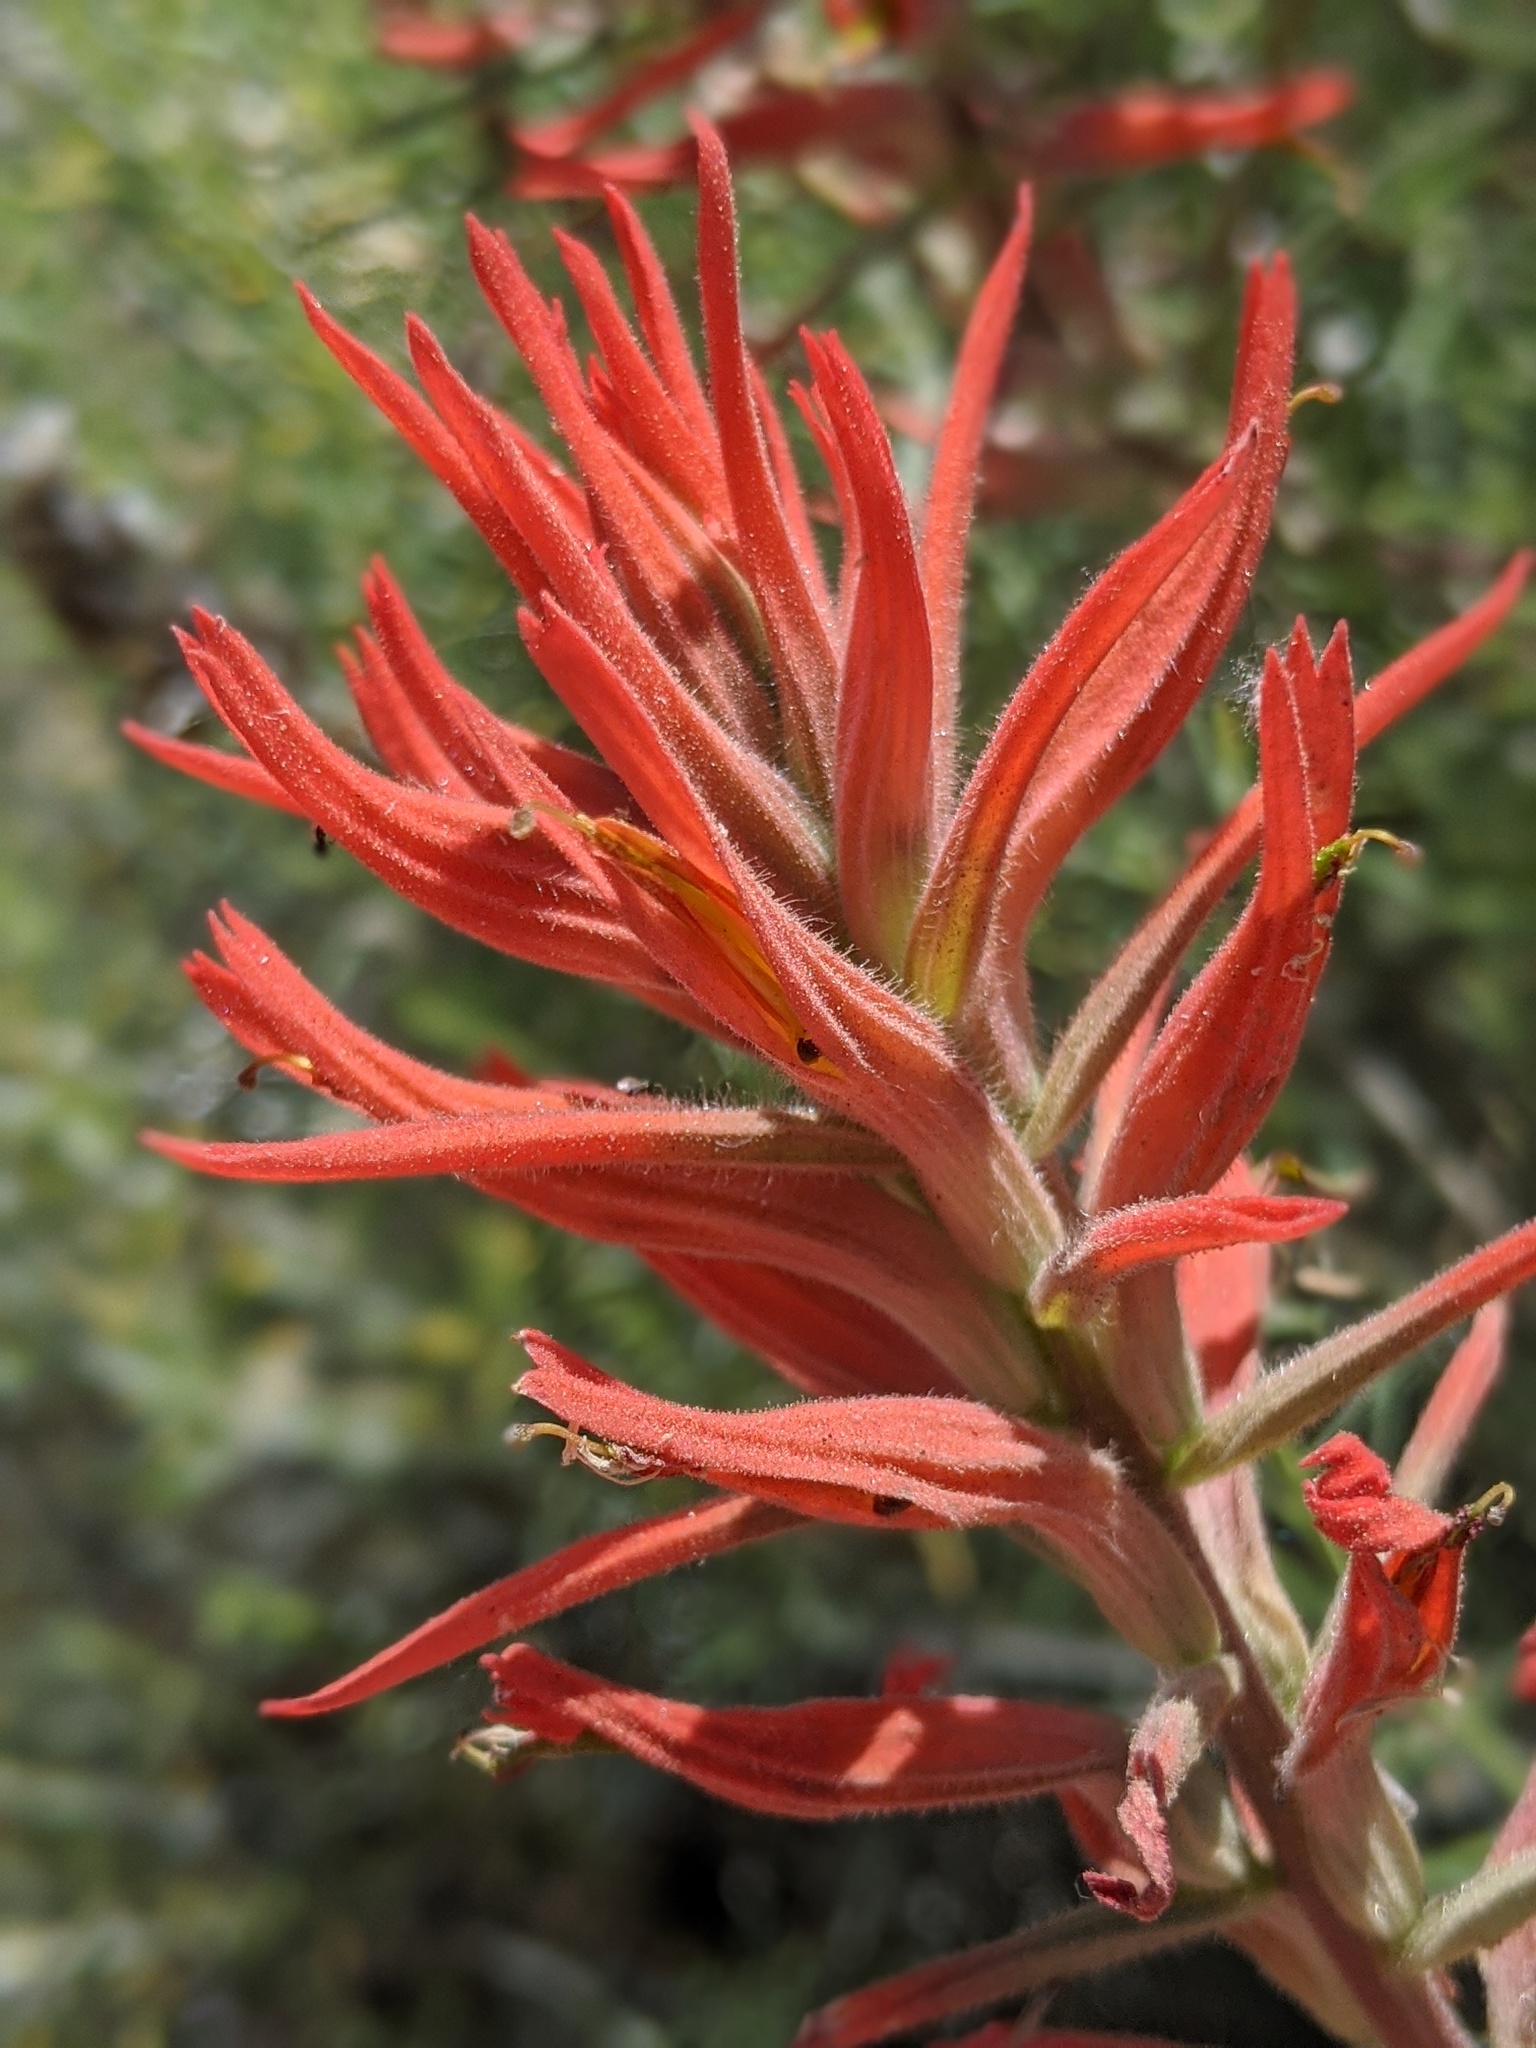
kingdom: Plantae
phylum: Tracheophyta
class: Magnoliopsida
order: Lamiales
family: Orobanchaceae
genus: Castilleja
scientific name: Castilleja subinclusa
